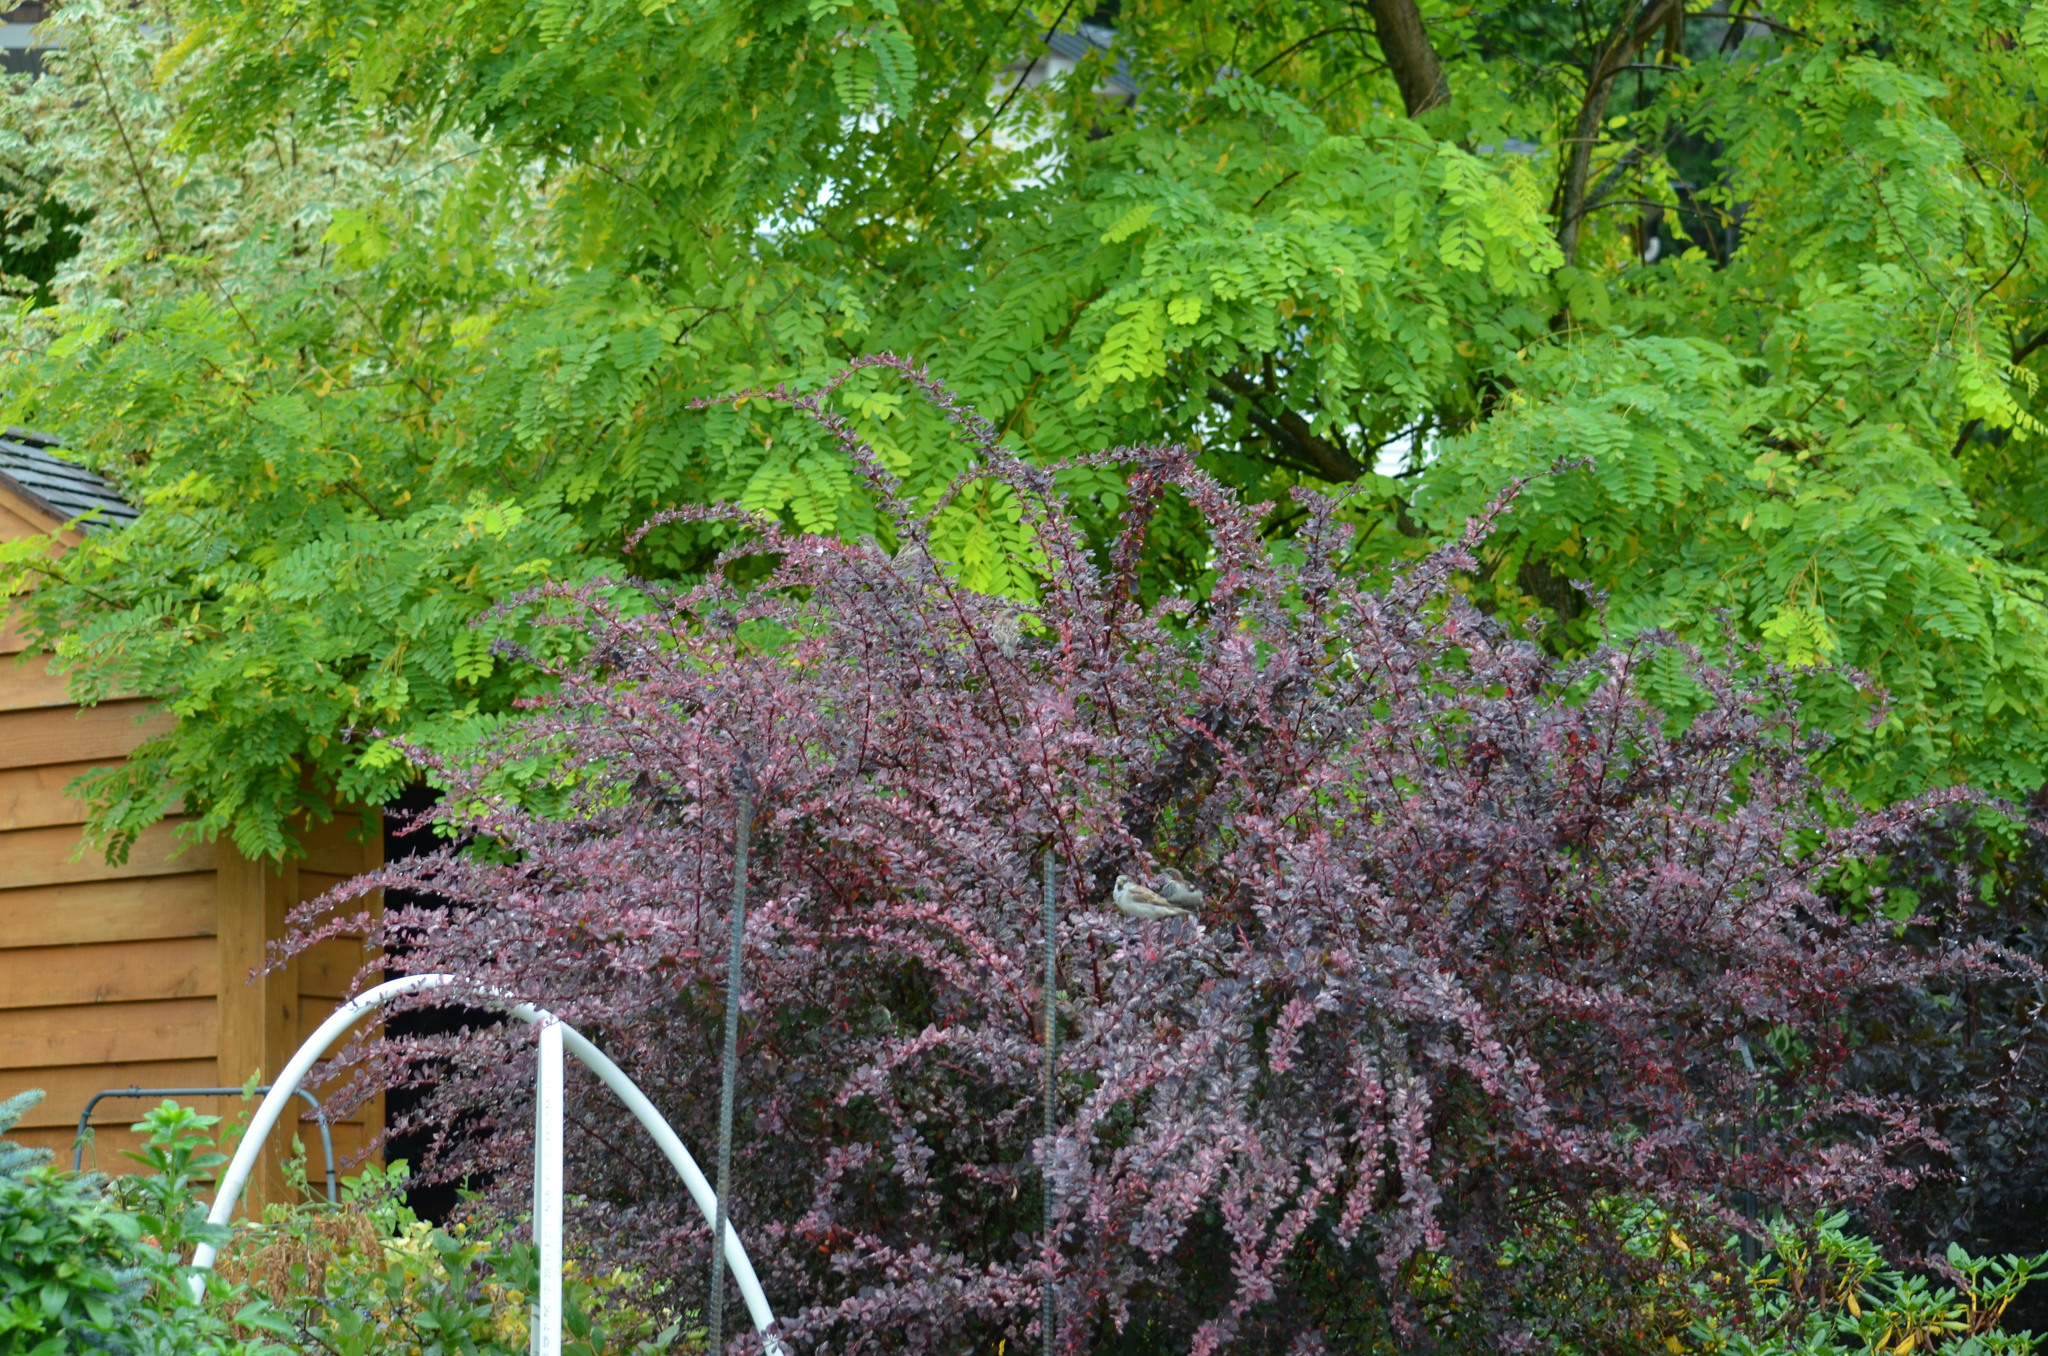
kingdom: Animalia
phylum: Chordata
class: Aves
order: Passeriformes
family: Passeridae
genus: Passer
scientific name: Passer domesticus
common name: House sparrow
